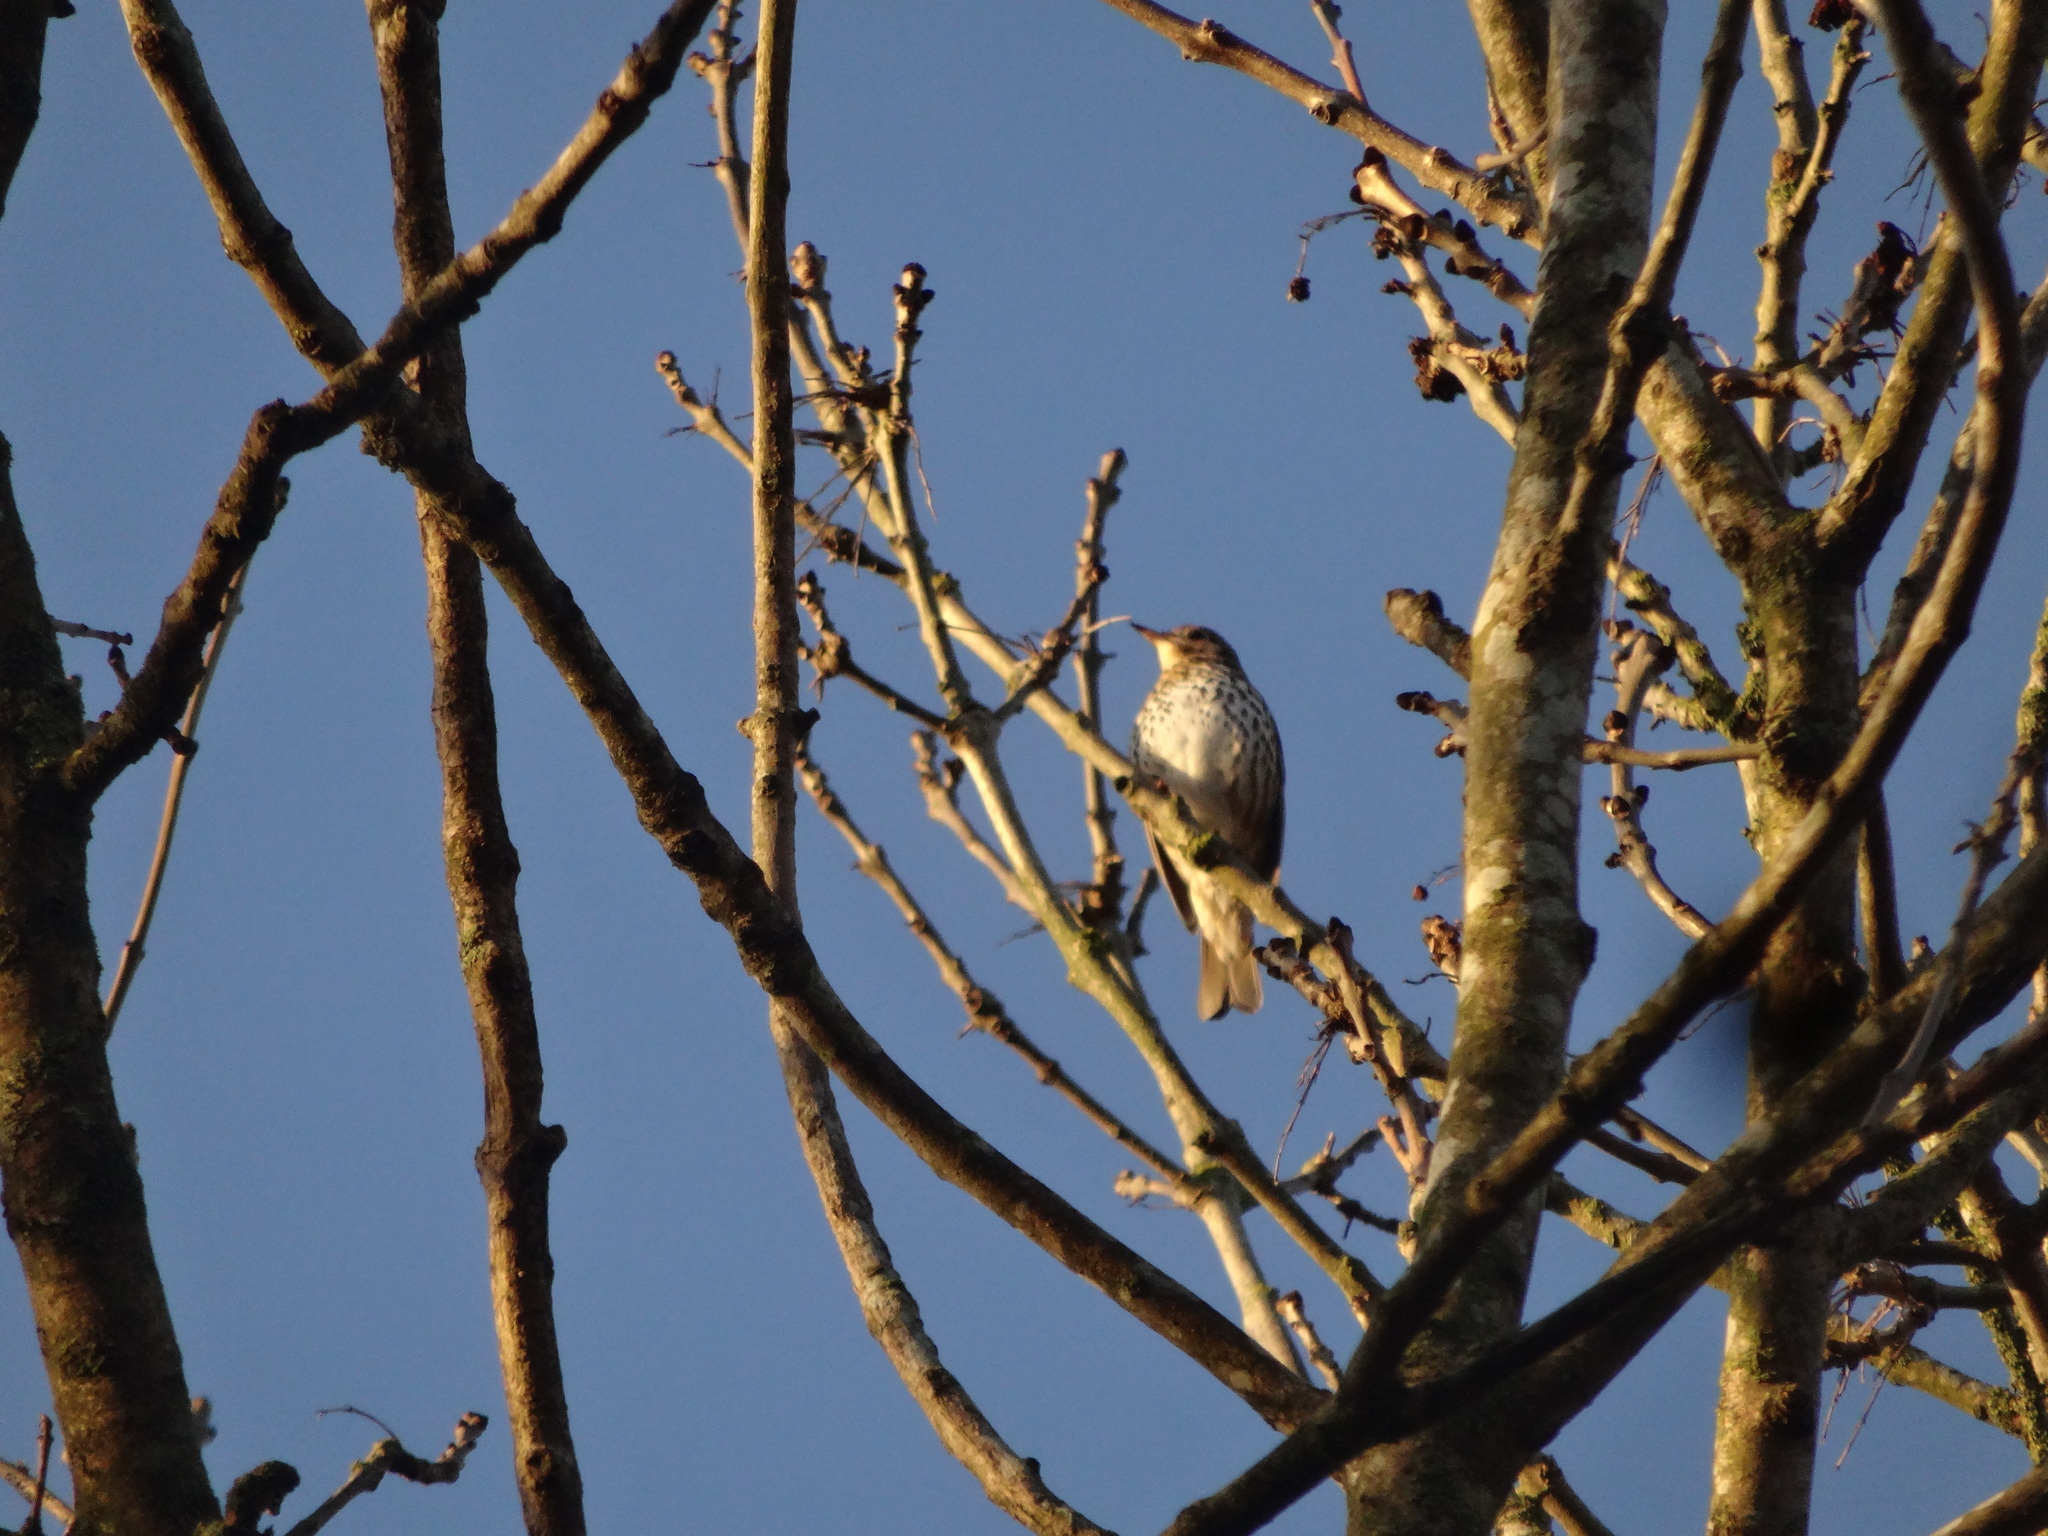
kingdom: Animalia
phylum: Chordata
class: Aves
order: Passeriformes
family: Turdidae
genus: Turdus
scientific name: Turdus philomelos
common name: Song thrush
